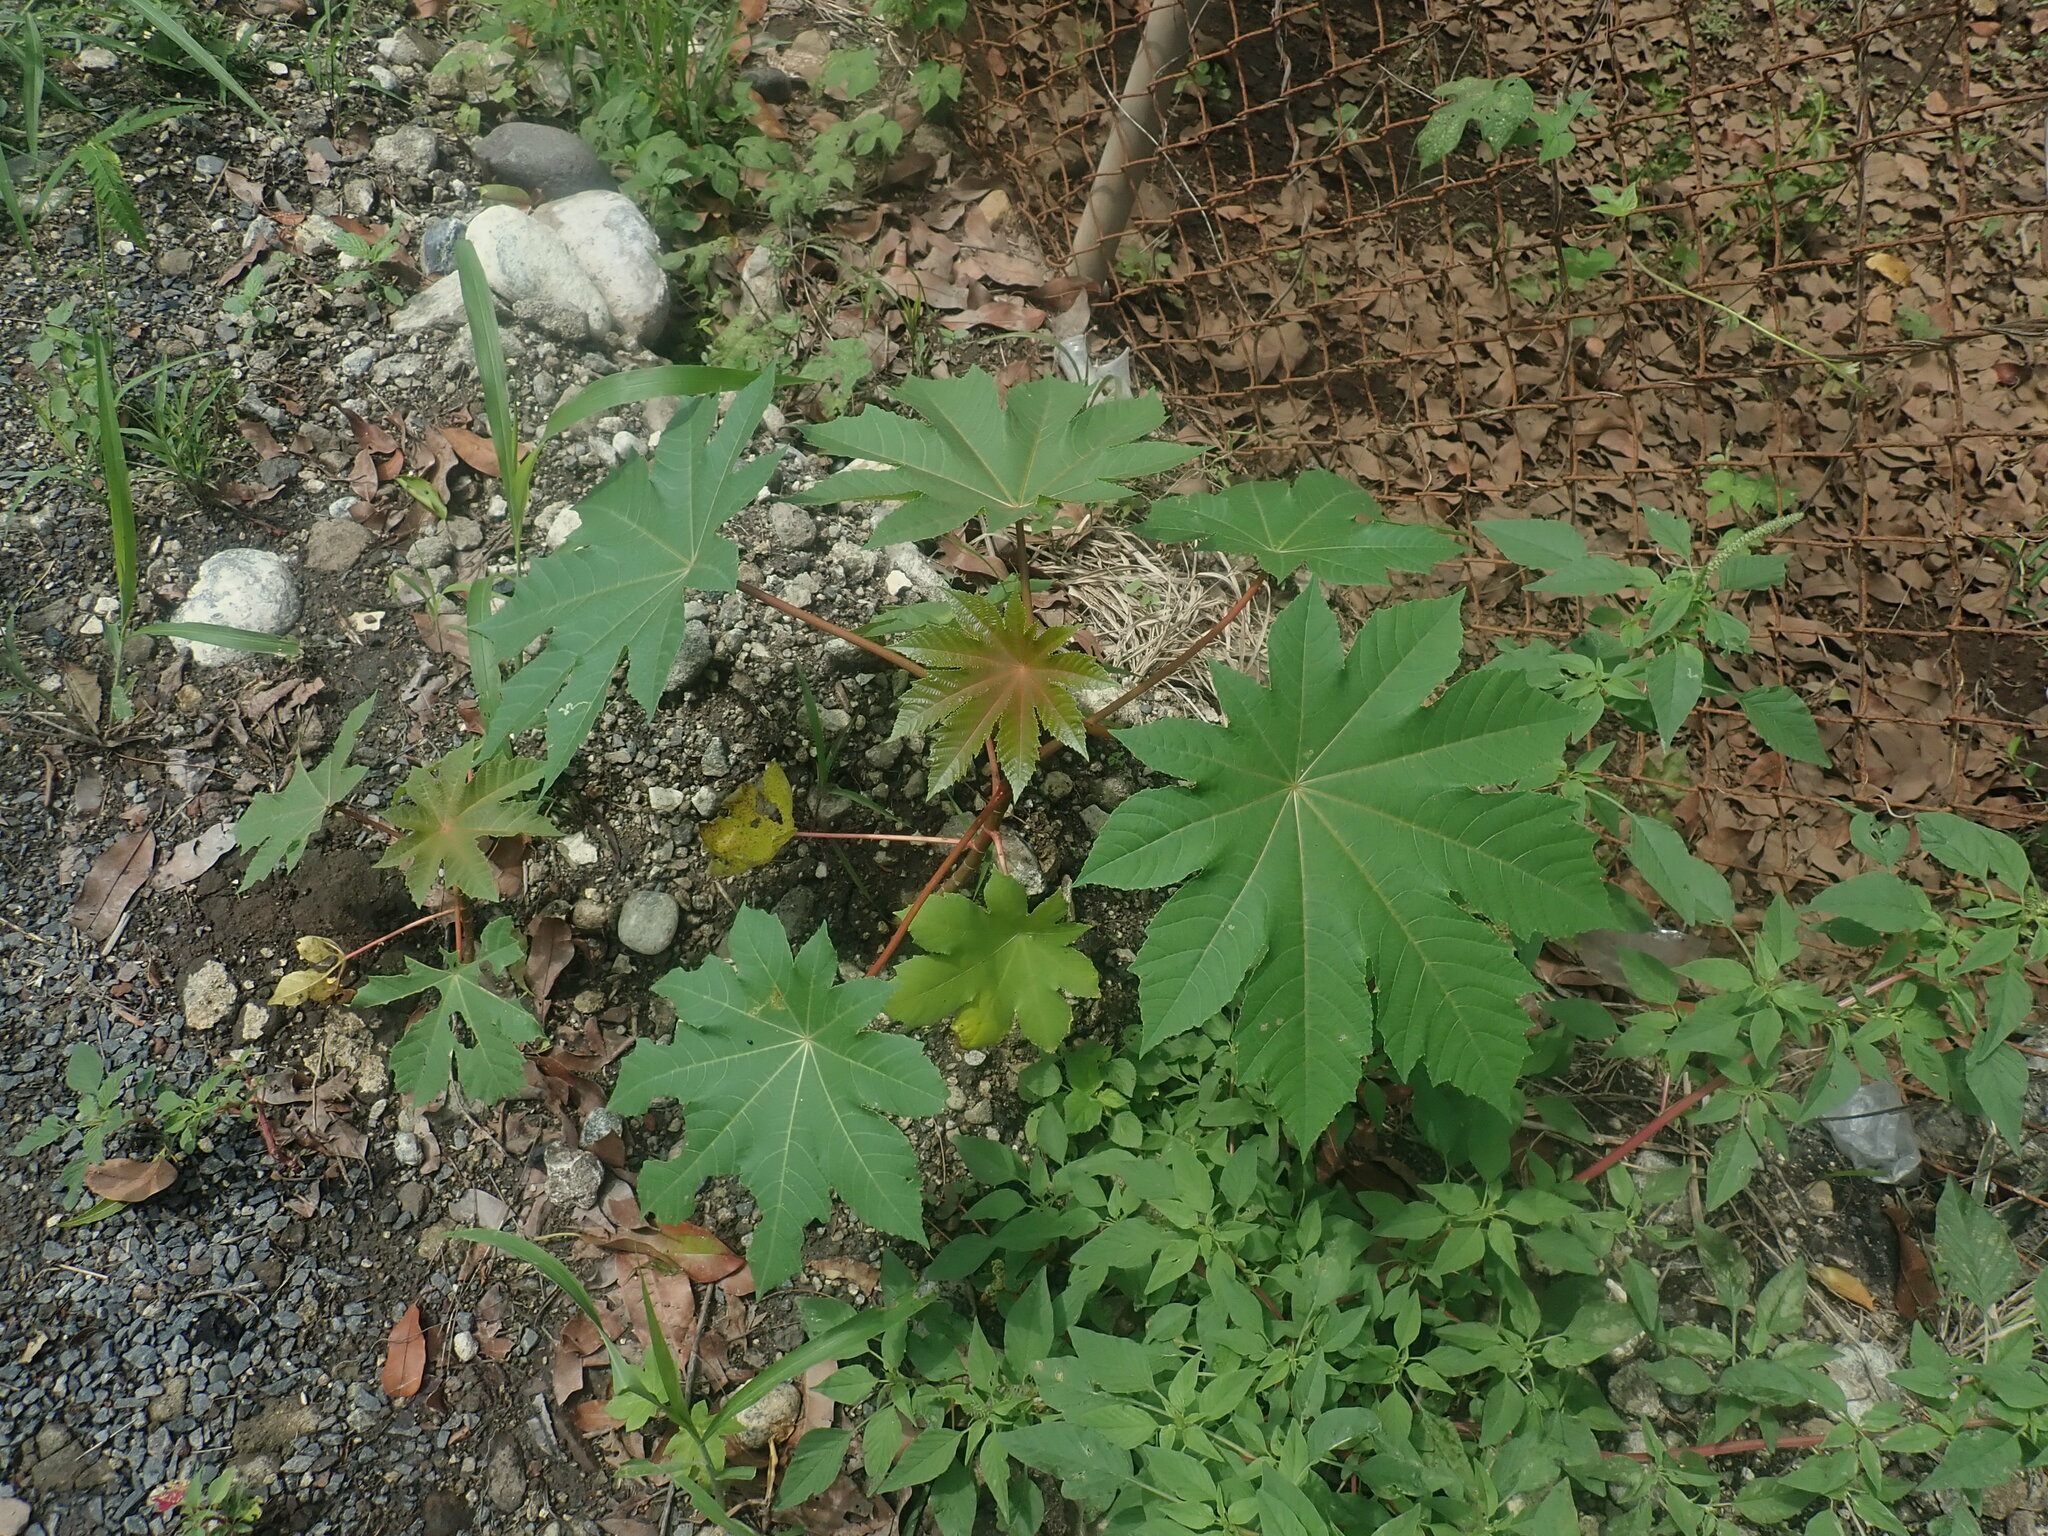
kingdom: Plantae
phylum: Tracheophyta
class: Magnoliopsida
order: Malpighiales
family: Euphorbiaceae
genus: Ricinus
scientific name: Ricinus communis
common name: Castor-oil-plant
